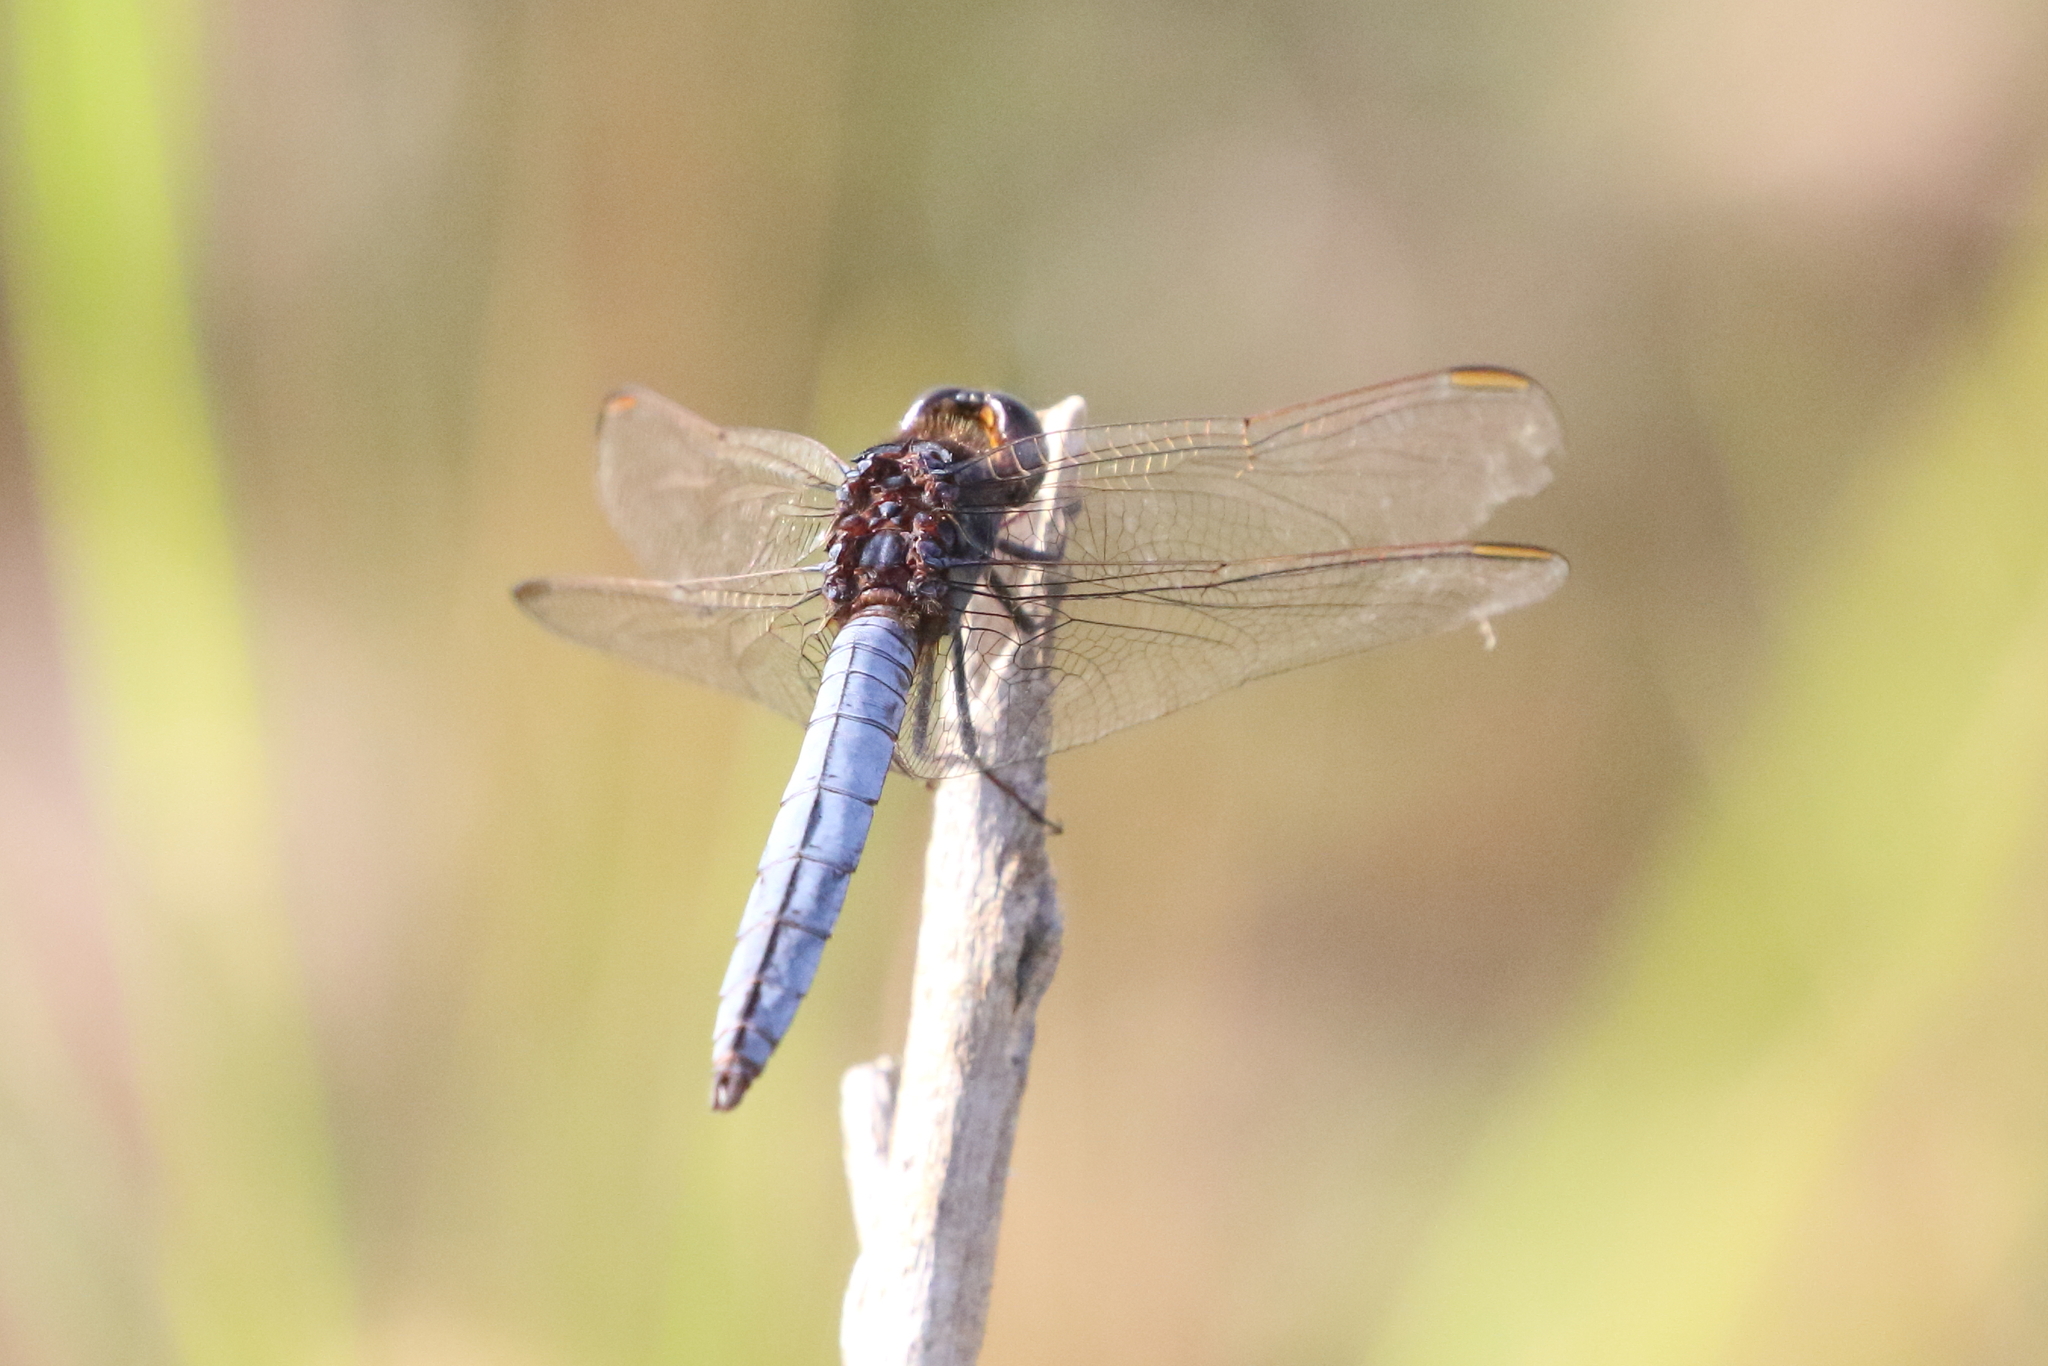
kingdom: Animalia
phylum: Arthropoda
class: Insecta
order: Odonata
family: Libellulidae
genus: Crocothemis
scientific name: Crocothemis nigrifrons
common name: Black-headed skimmer
